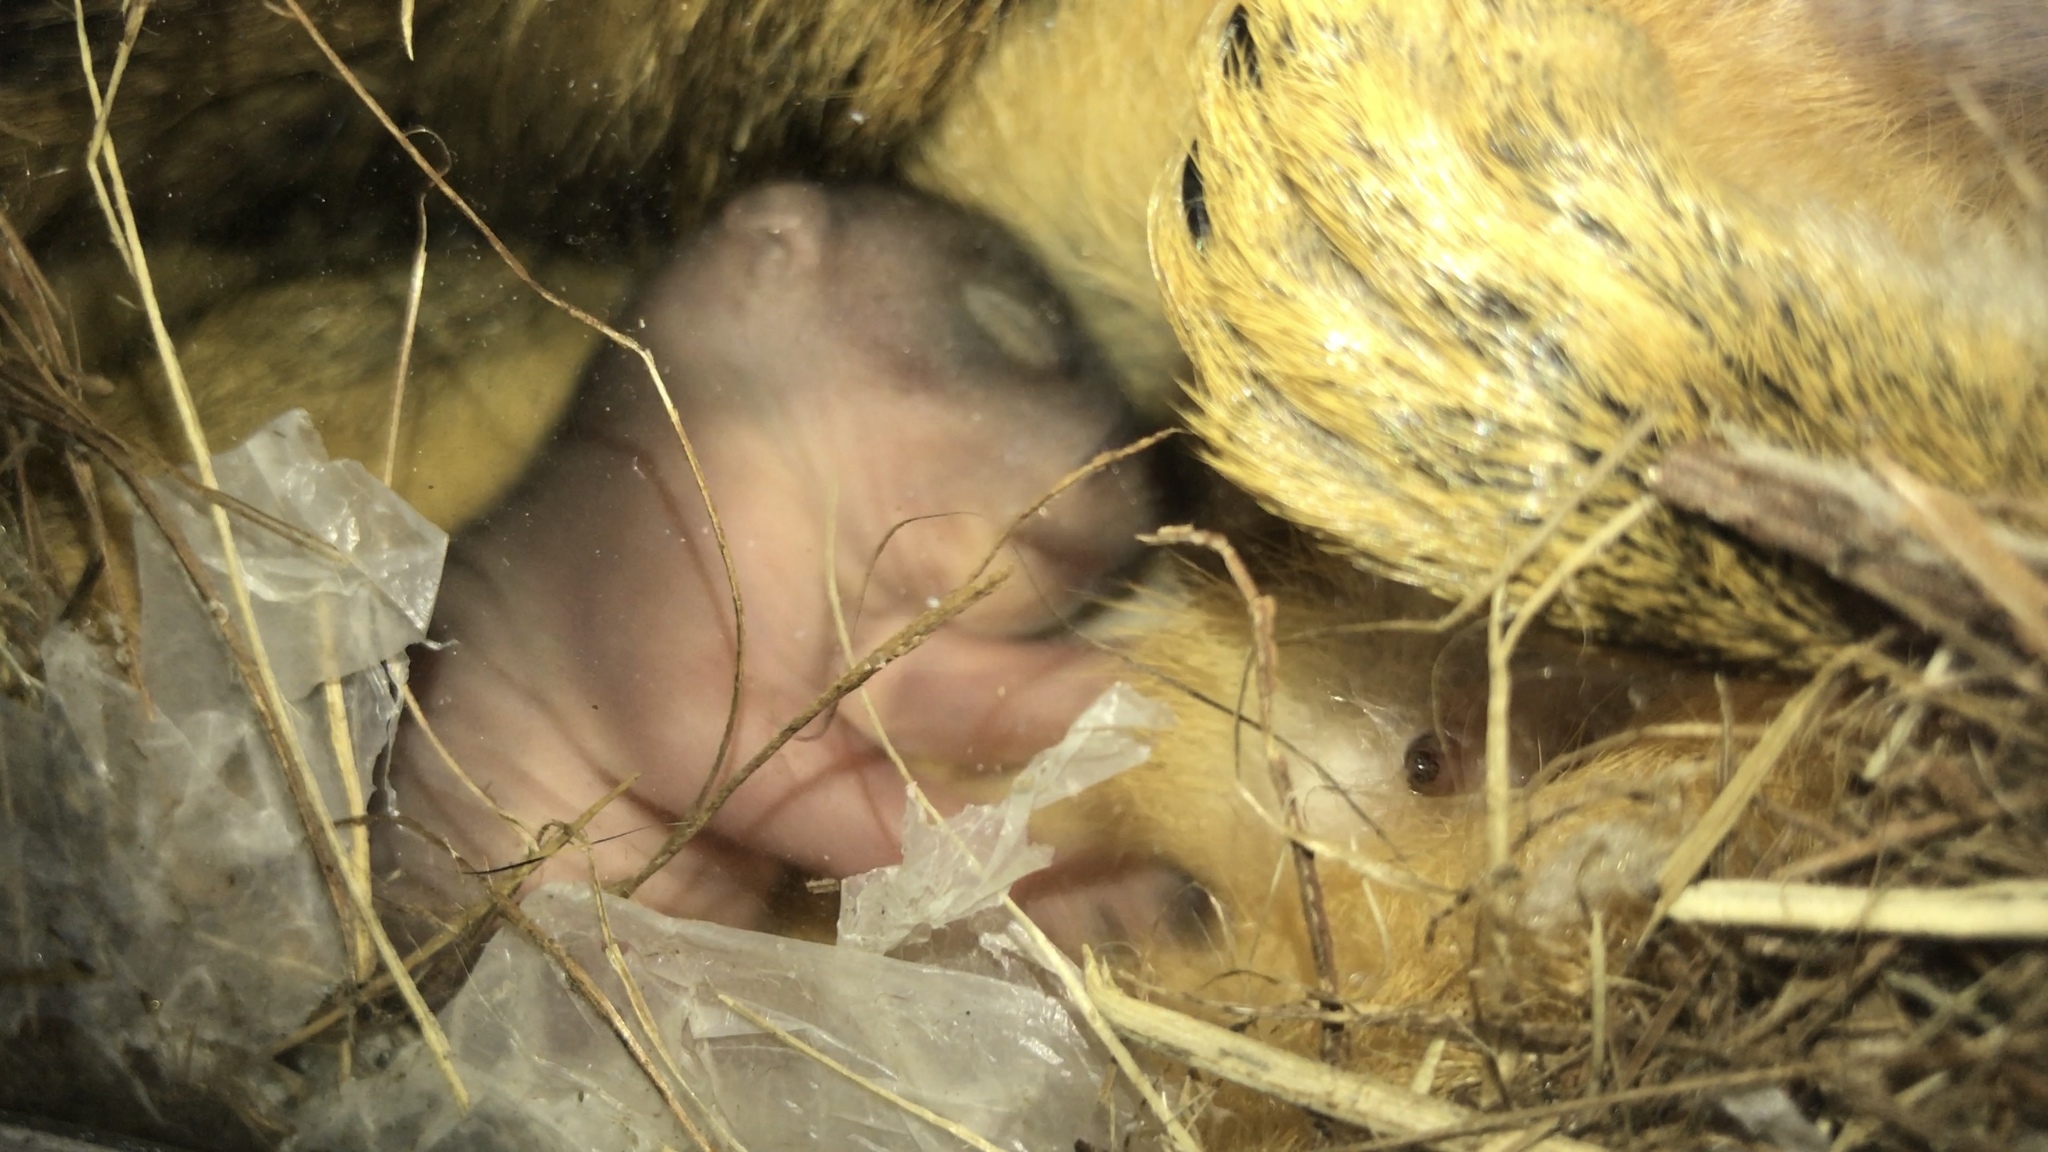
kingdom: Animalia
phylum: Chordata
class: Mammalia
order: Rodentia
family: Sciuridae
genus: Sciurus
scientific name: Sciurus niger
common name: Fox squirrel
